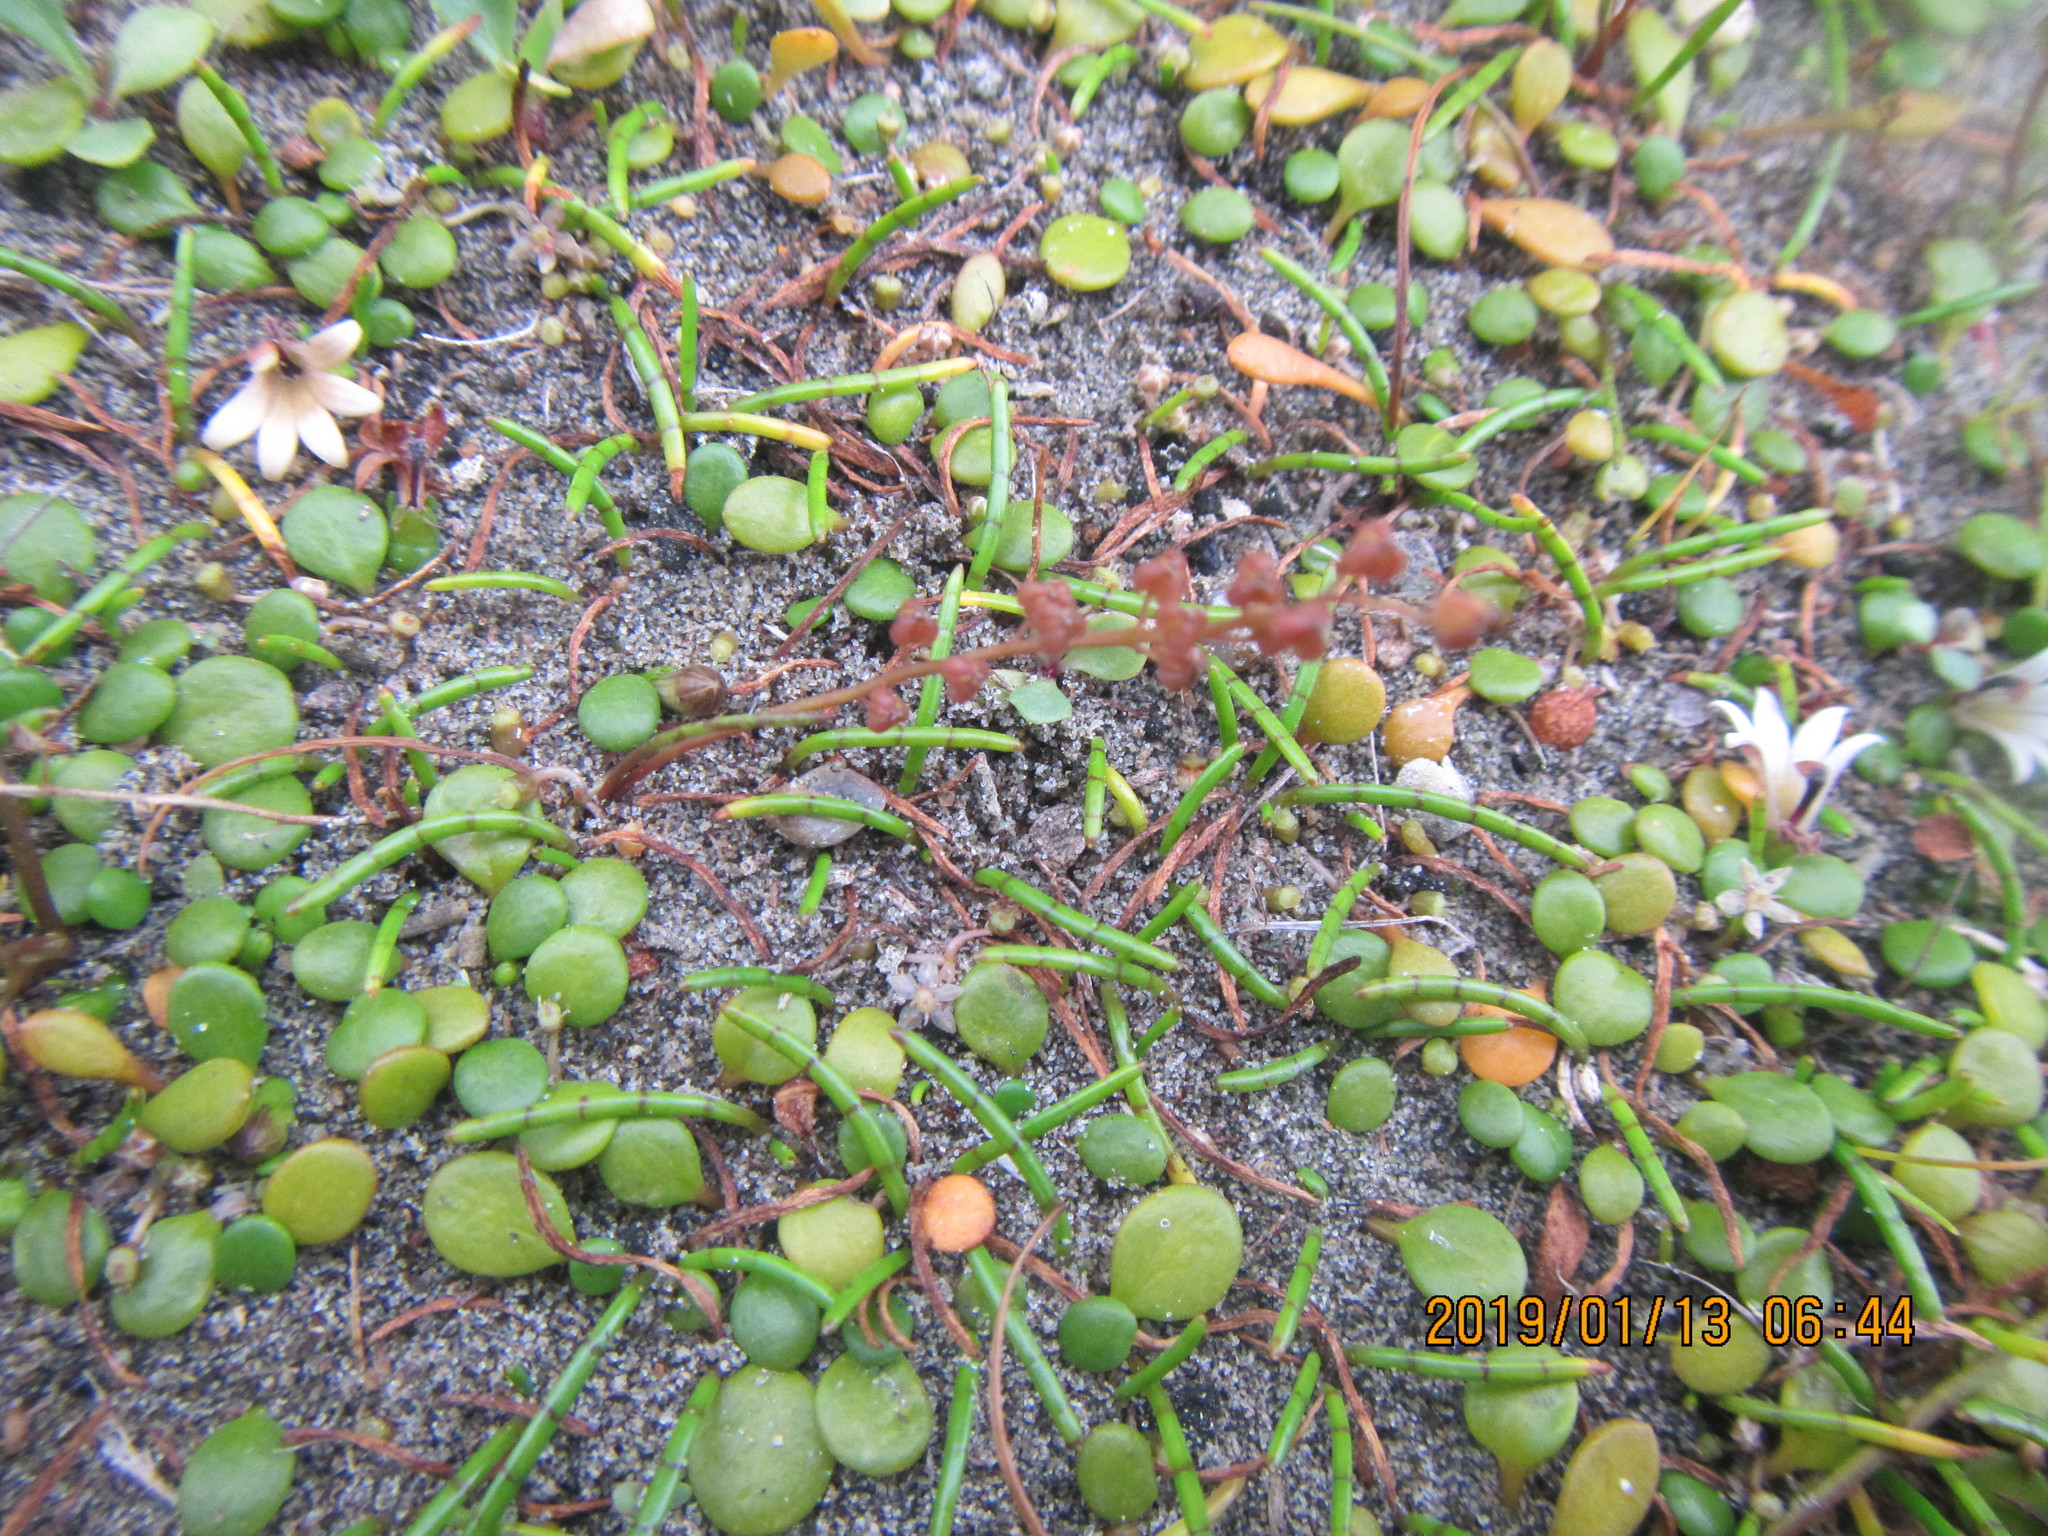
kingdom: Plantae
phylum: Tracheophyta
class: Magnoliopsida
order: Apiales
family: Apiaceae
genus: Lilaeopsis
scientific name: Lilaeopsis novae-zelandiae
